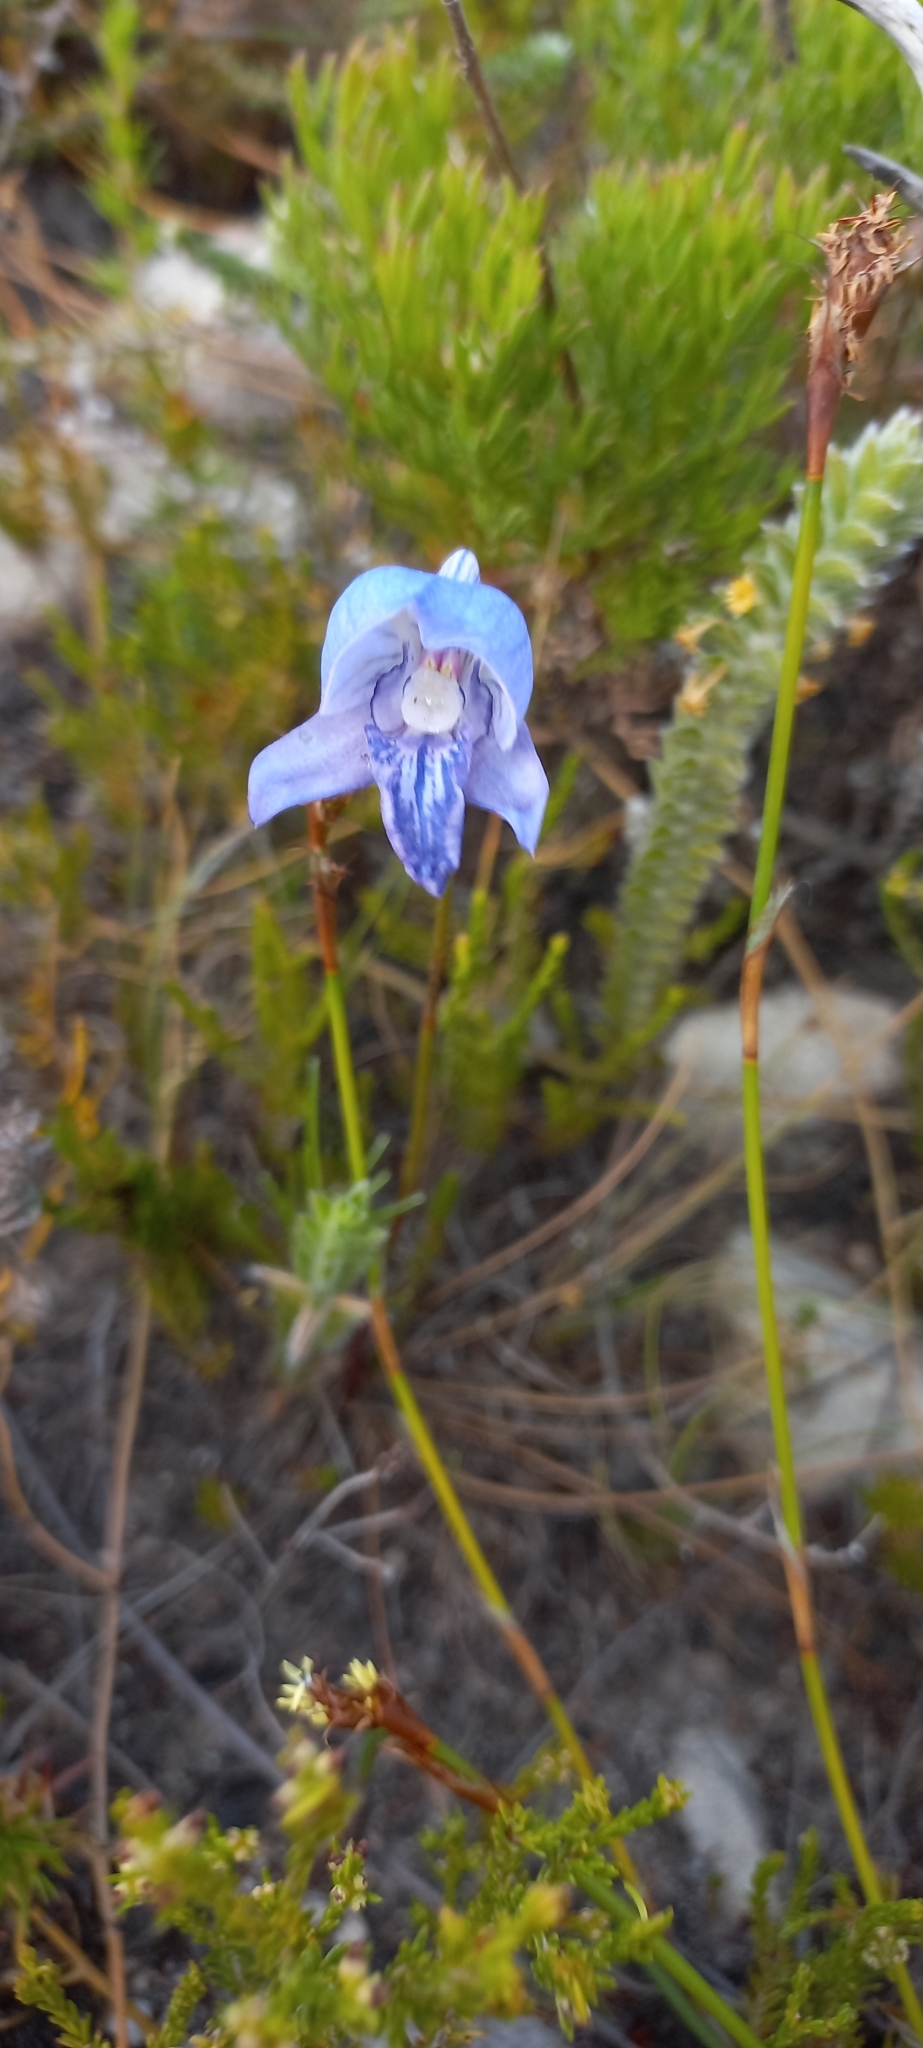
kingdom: Plantae
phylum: Tracheophyta
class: Liliopsida
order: Asparagales
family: Orchidaceae
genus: Disa
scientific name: Disa purpurascens
